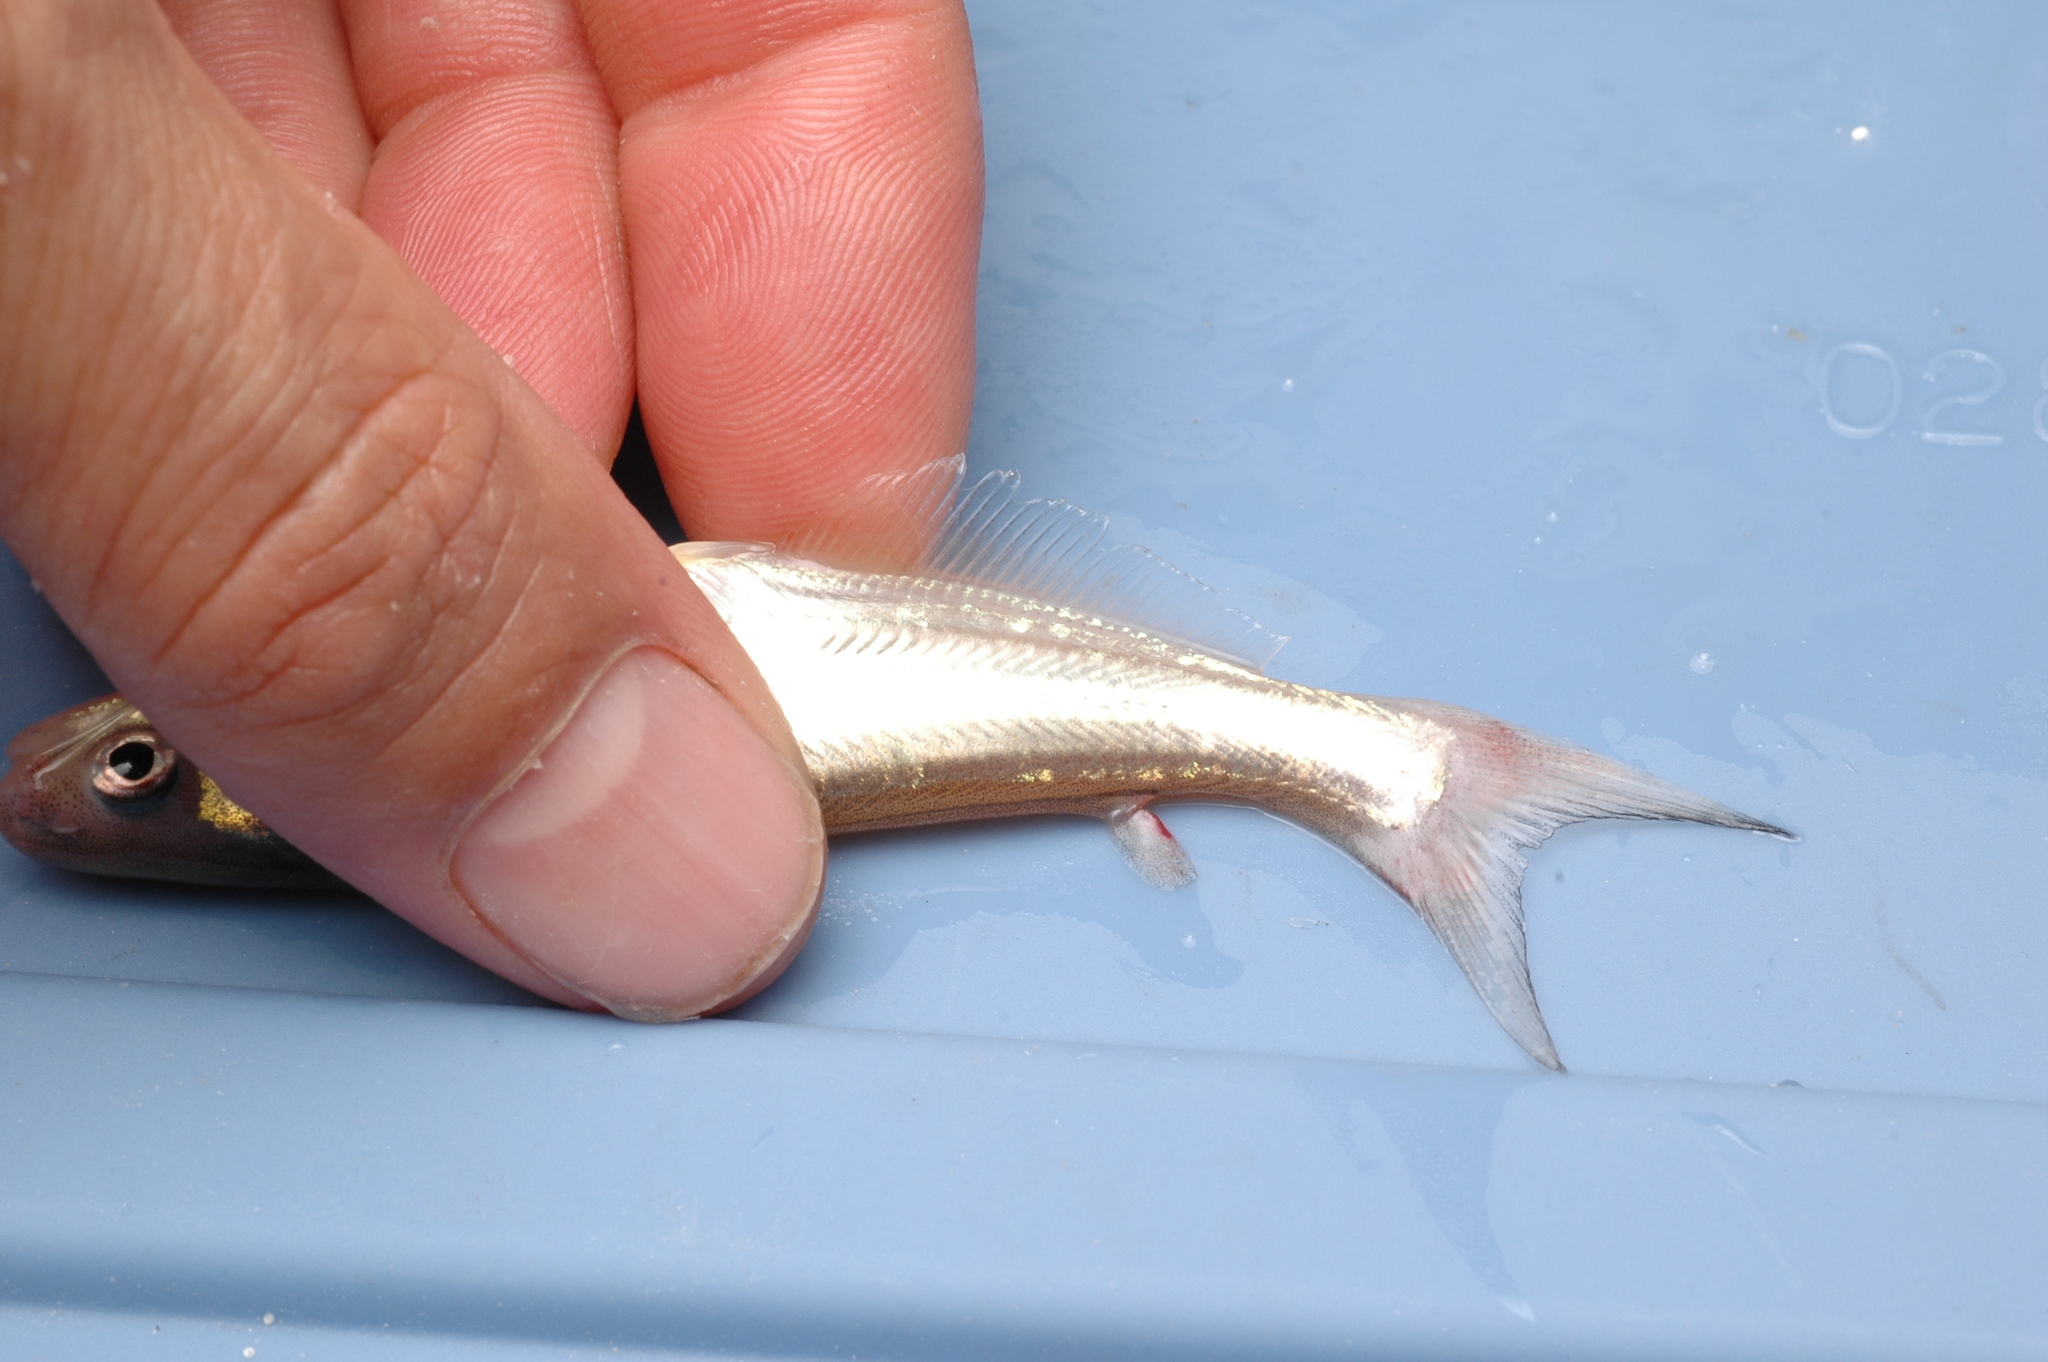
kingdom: Animalia
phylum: Chordata
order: Siluriformes
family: Ictaluridae
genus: Ictalurus
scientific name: Ictalurus furcatus
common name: Blue catfish
